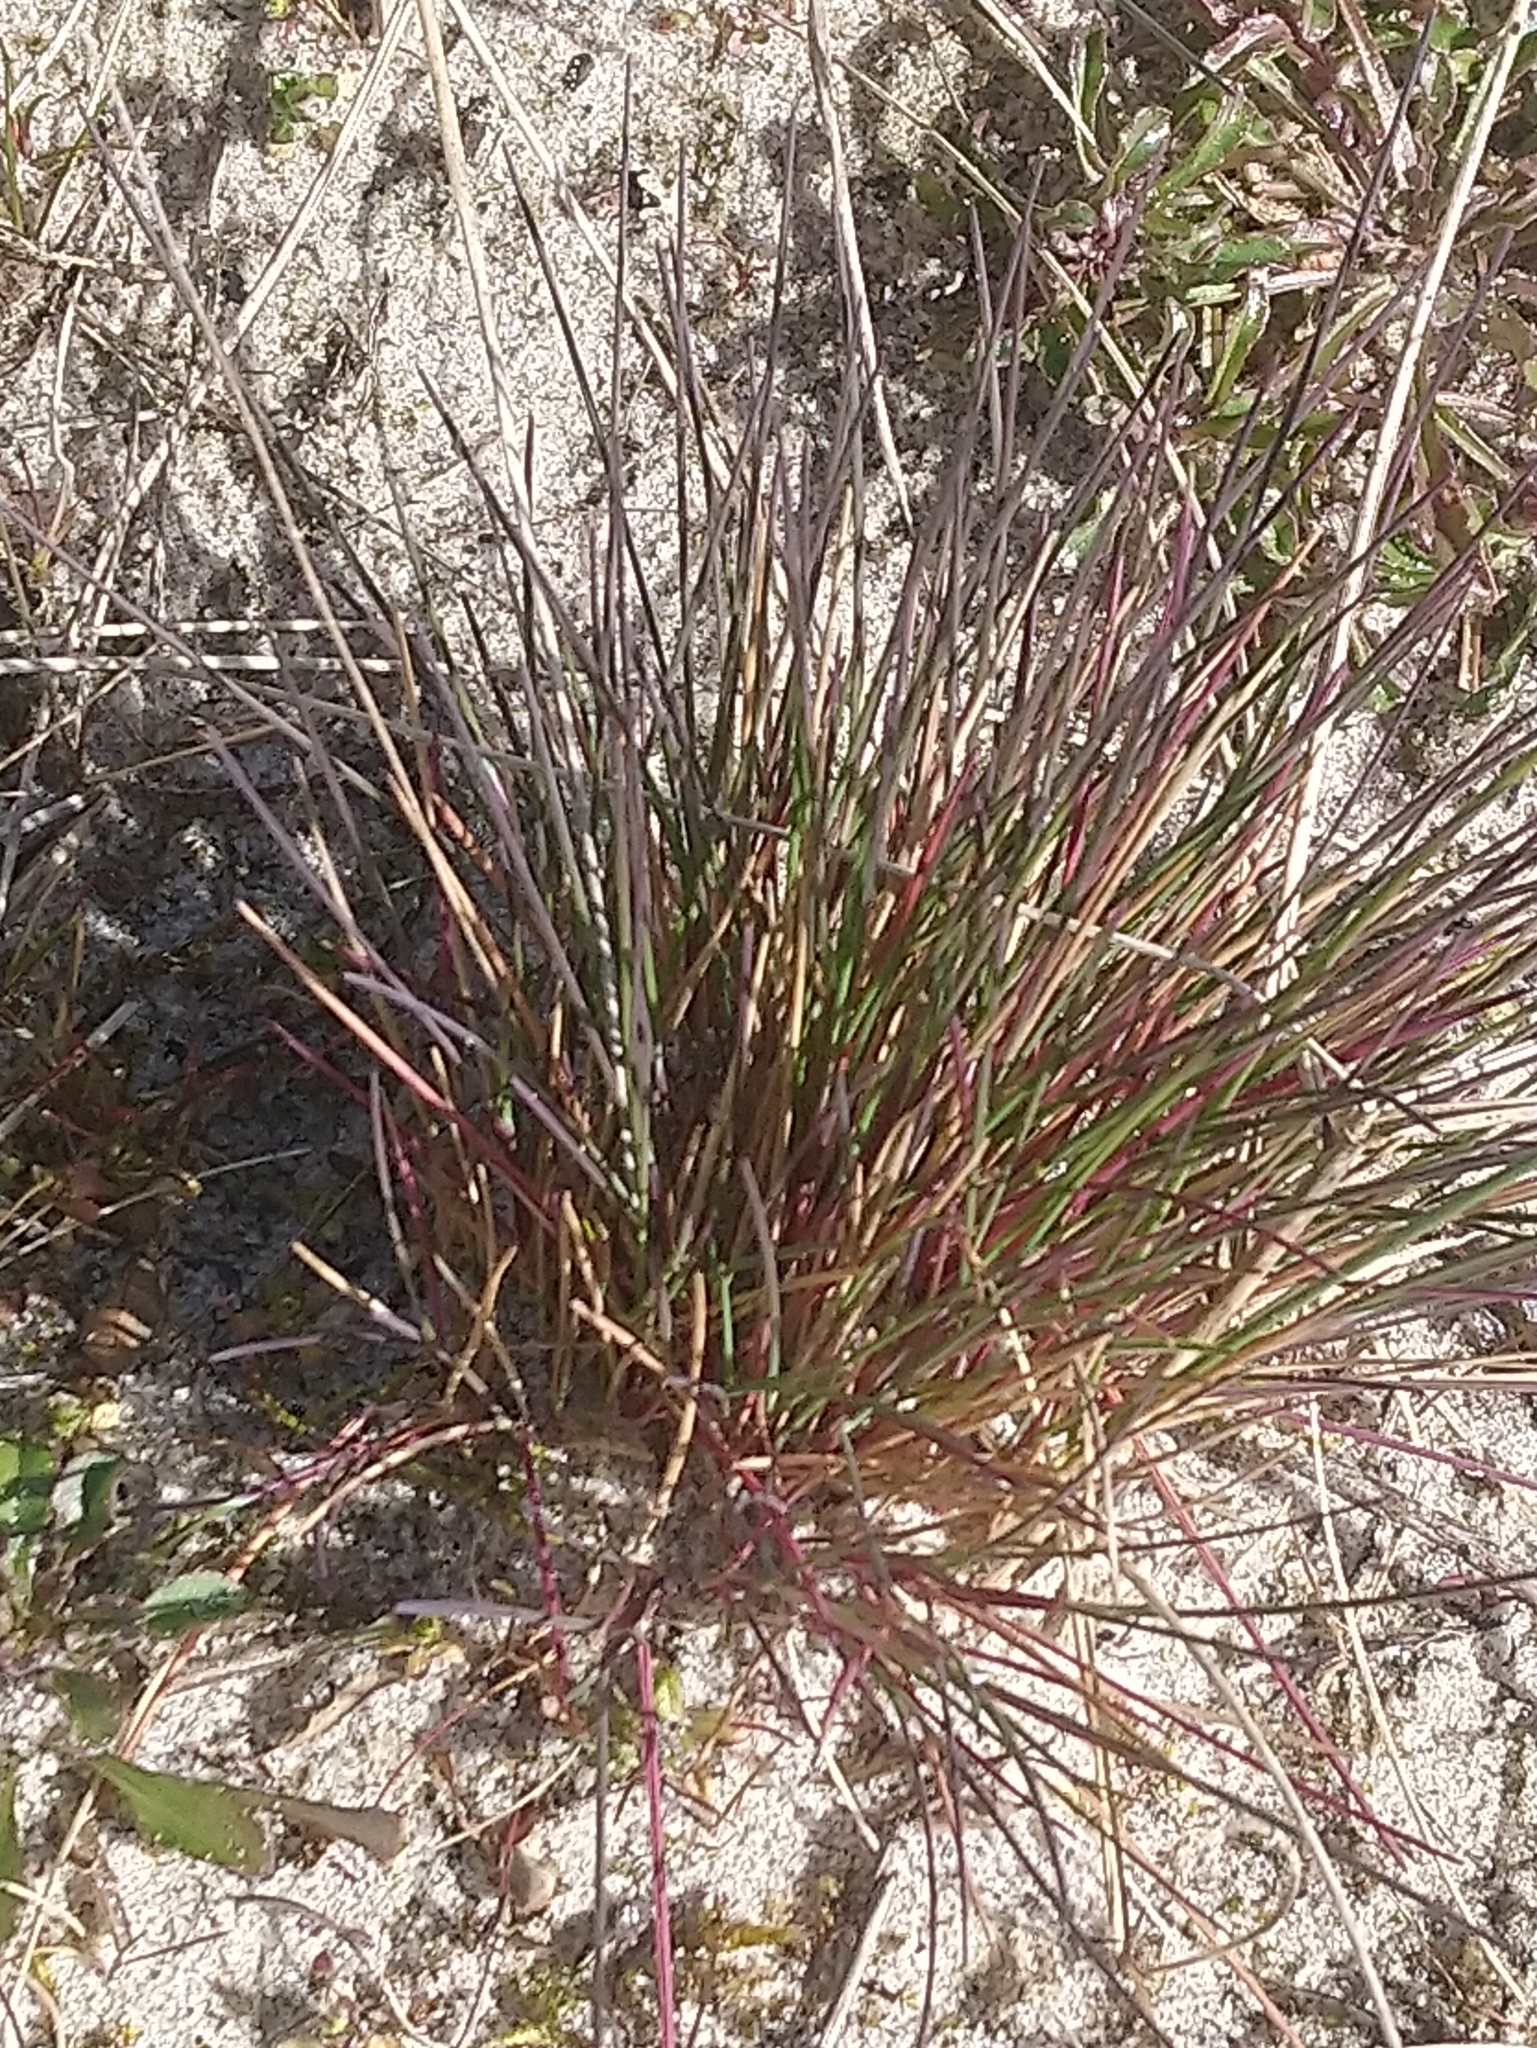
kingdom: Plantae
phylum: Tracheophyta
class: Liliopsida
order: Poales
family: Poaceae
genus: Corynephorus
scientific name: Corynephorus canescens
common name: Grey hair-grass
